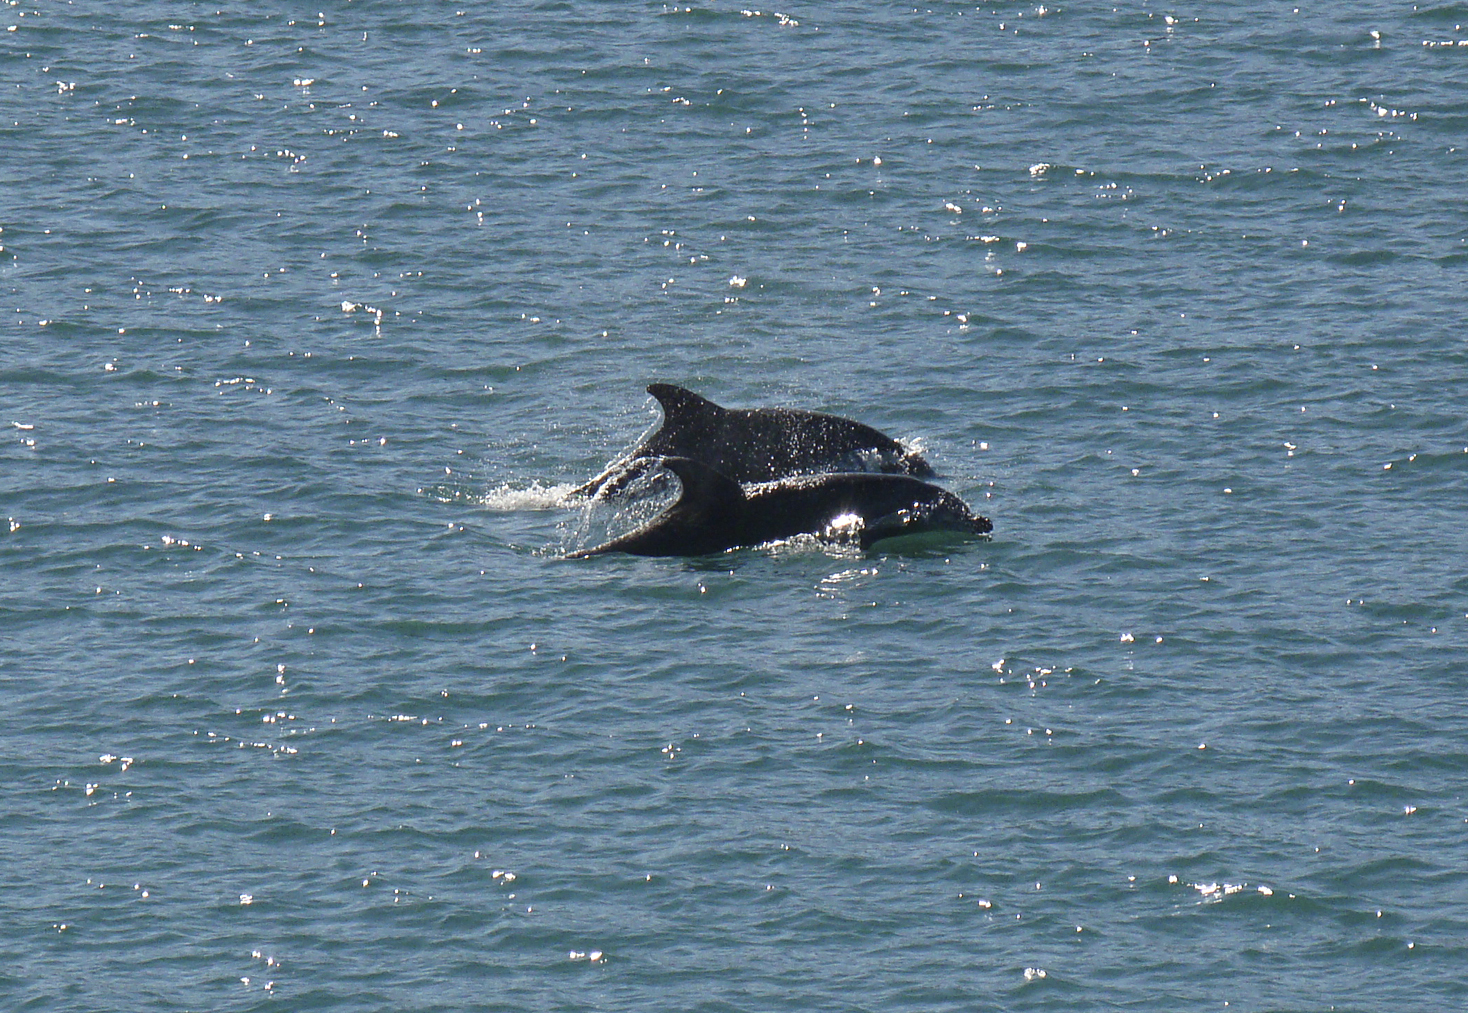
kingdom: Animalia
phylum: Chordata
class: Mammalia
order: Cetacea
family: Delphinidae
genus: Tursiops
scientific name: Tursiops truncatus
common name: Bottlenose dolphin
